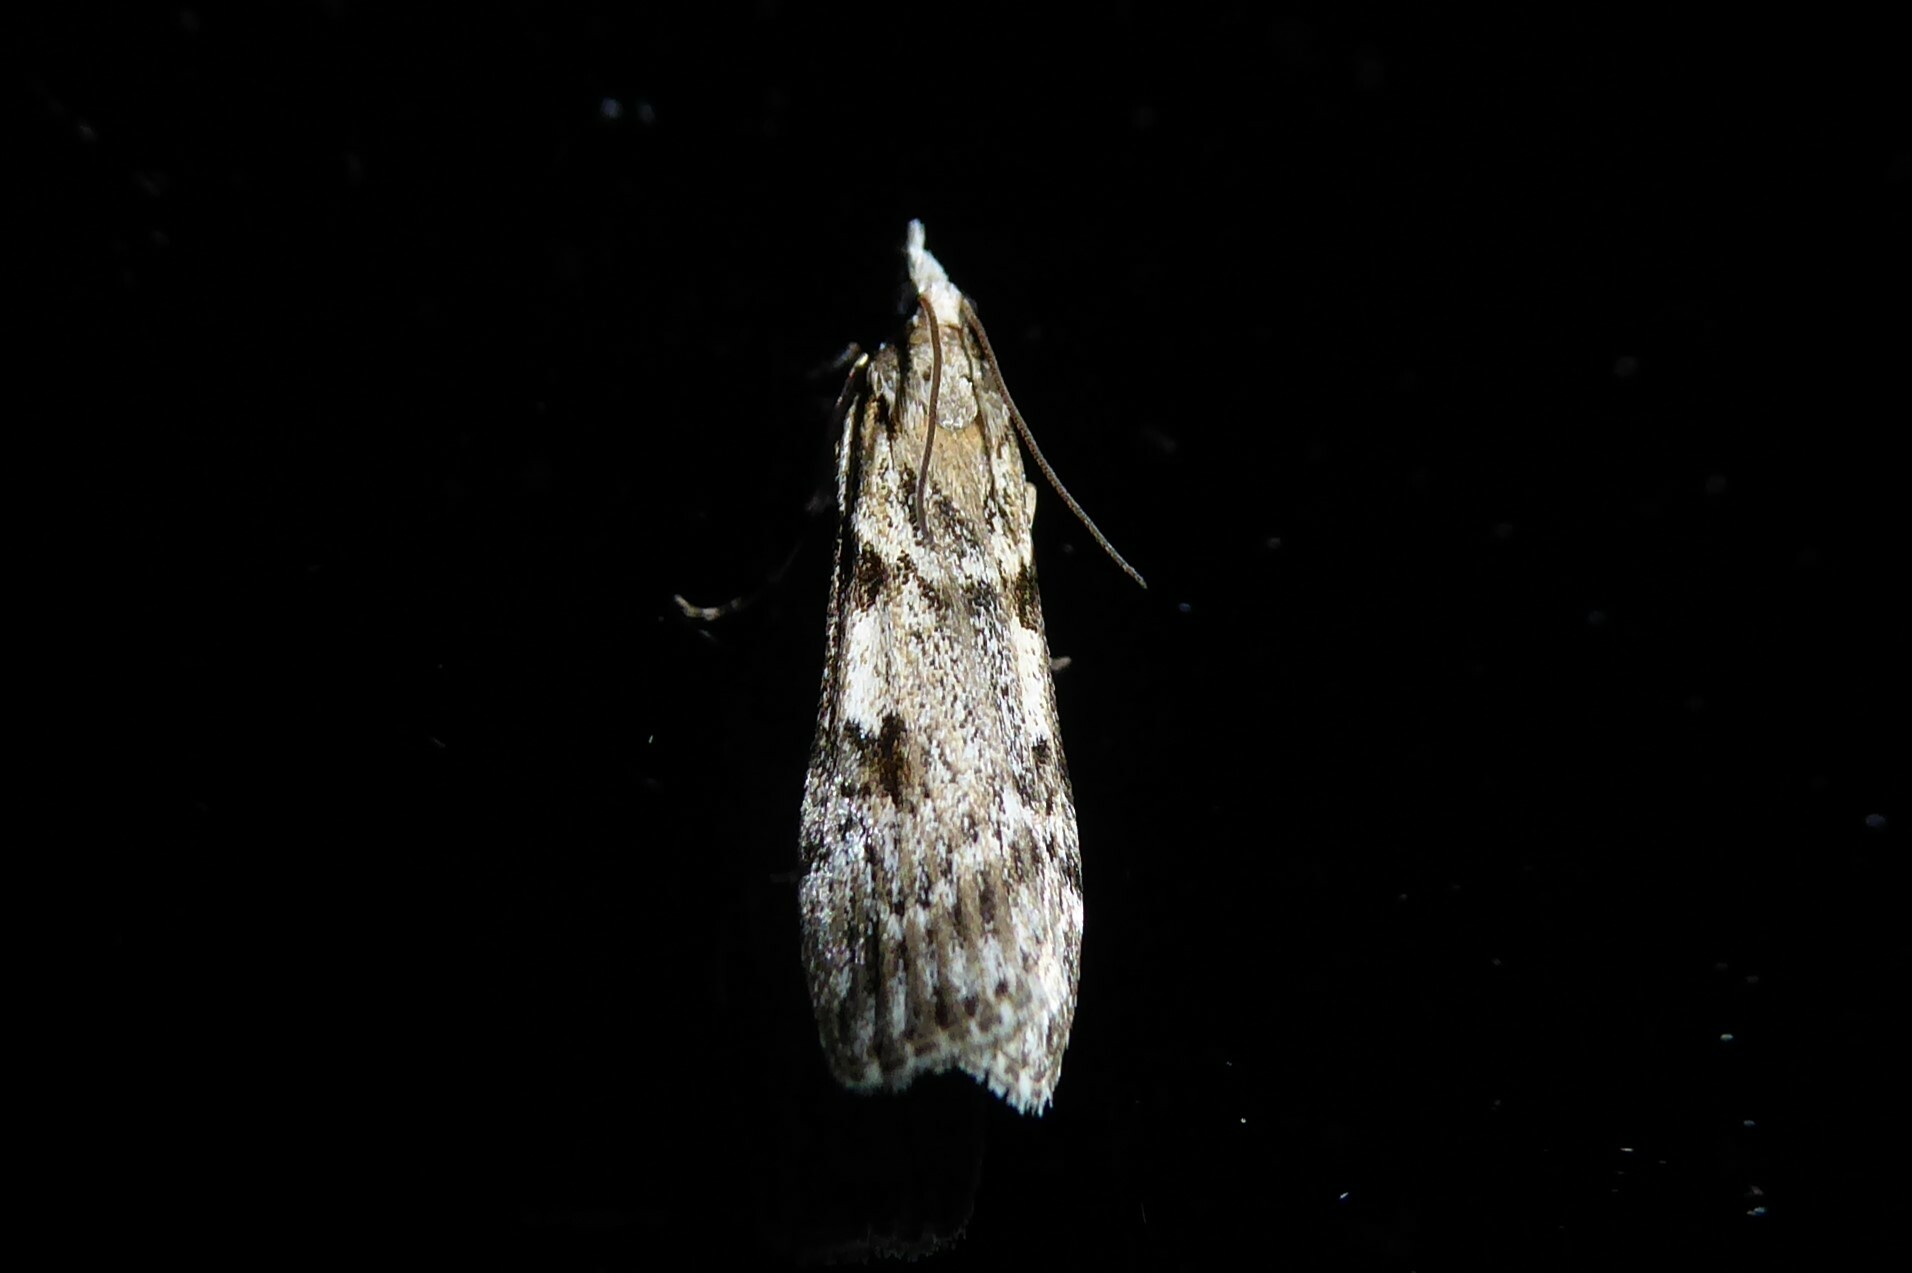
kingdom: Animalia
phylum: Arthropoda
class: Insecta
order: Lepidoptera
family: Crambidae
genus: Scoparia
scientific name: Scoparia halopis
